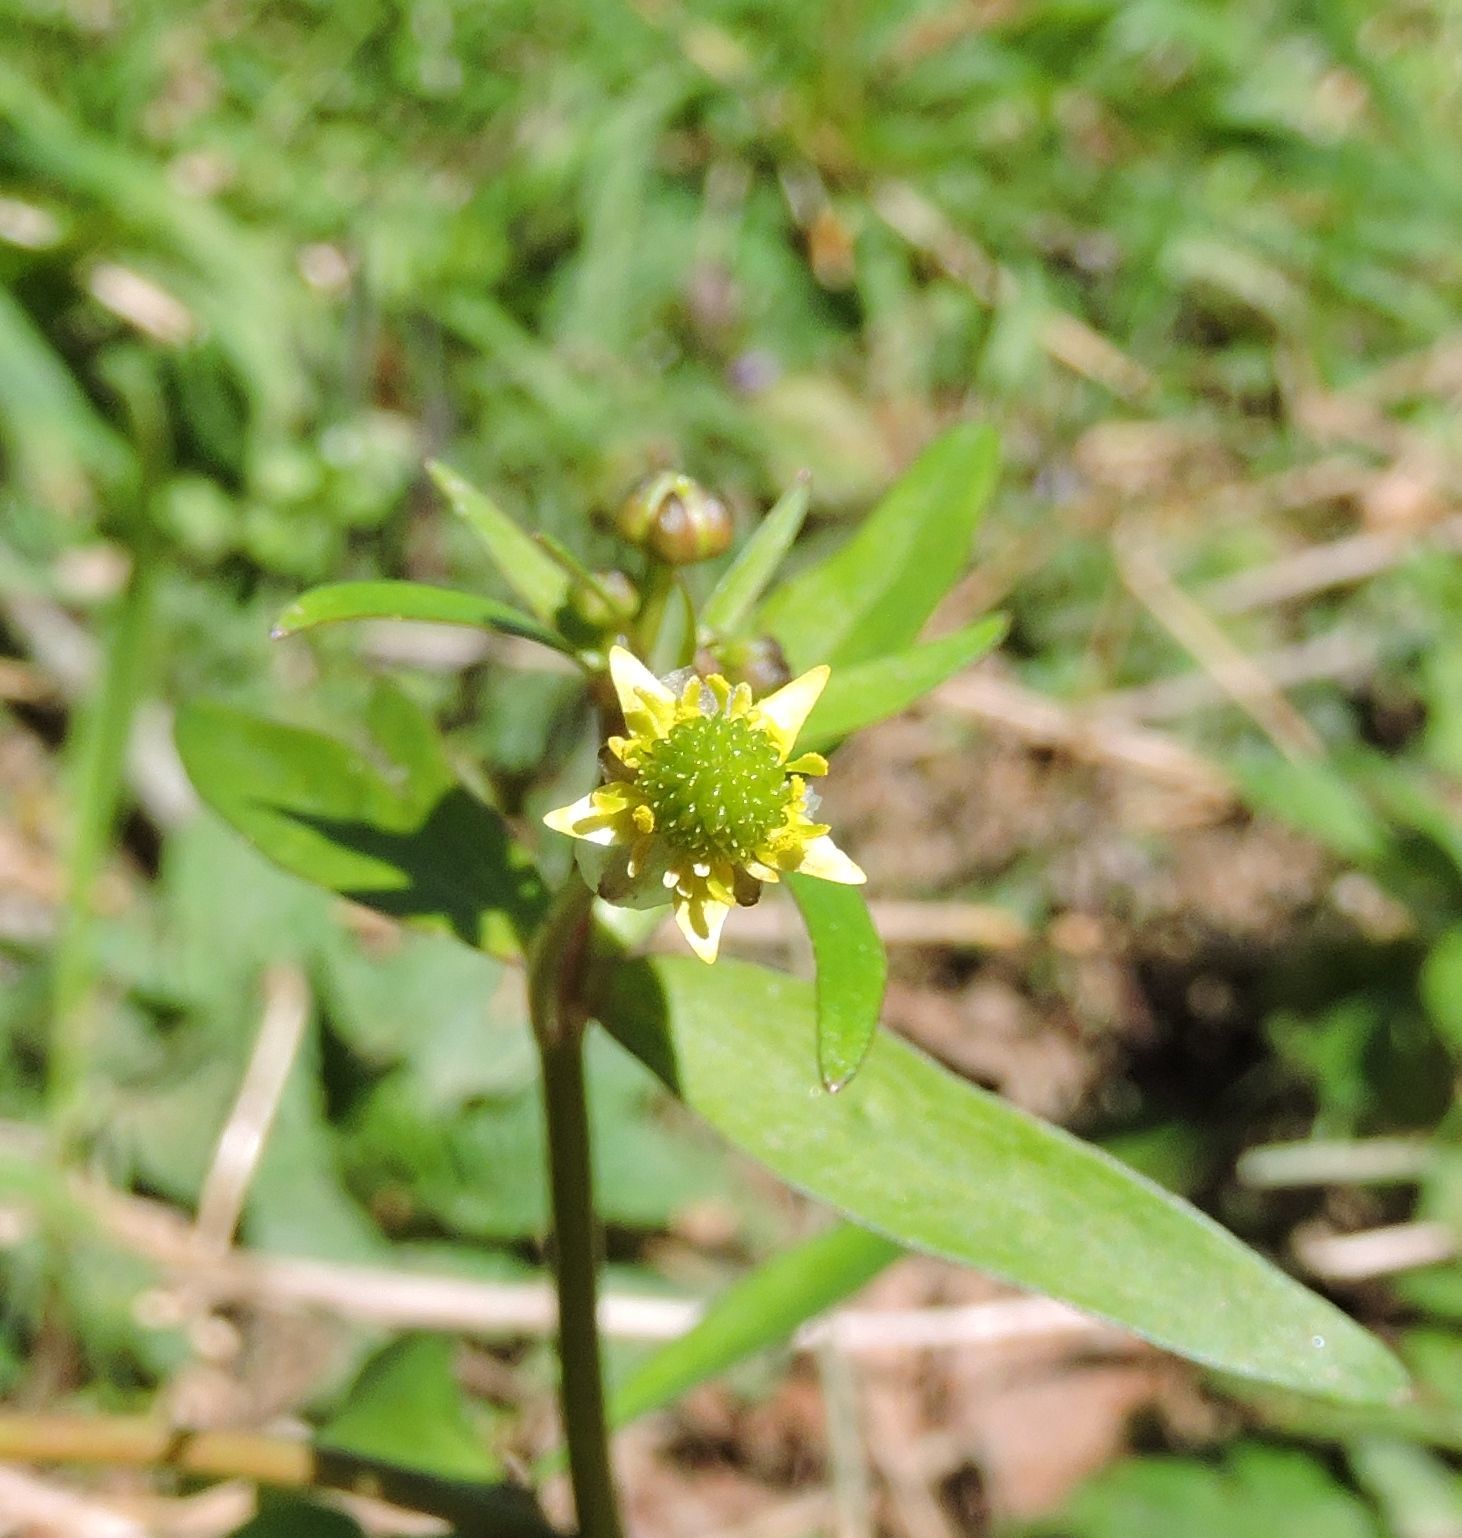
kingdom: Plantae
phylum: Tracheophyta
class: Magnoliopsida
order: Ranunculales
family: Ranunculaceae
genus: Ranunculus
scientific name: Ranunculus abortivus
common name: Early wood buttercup
